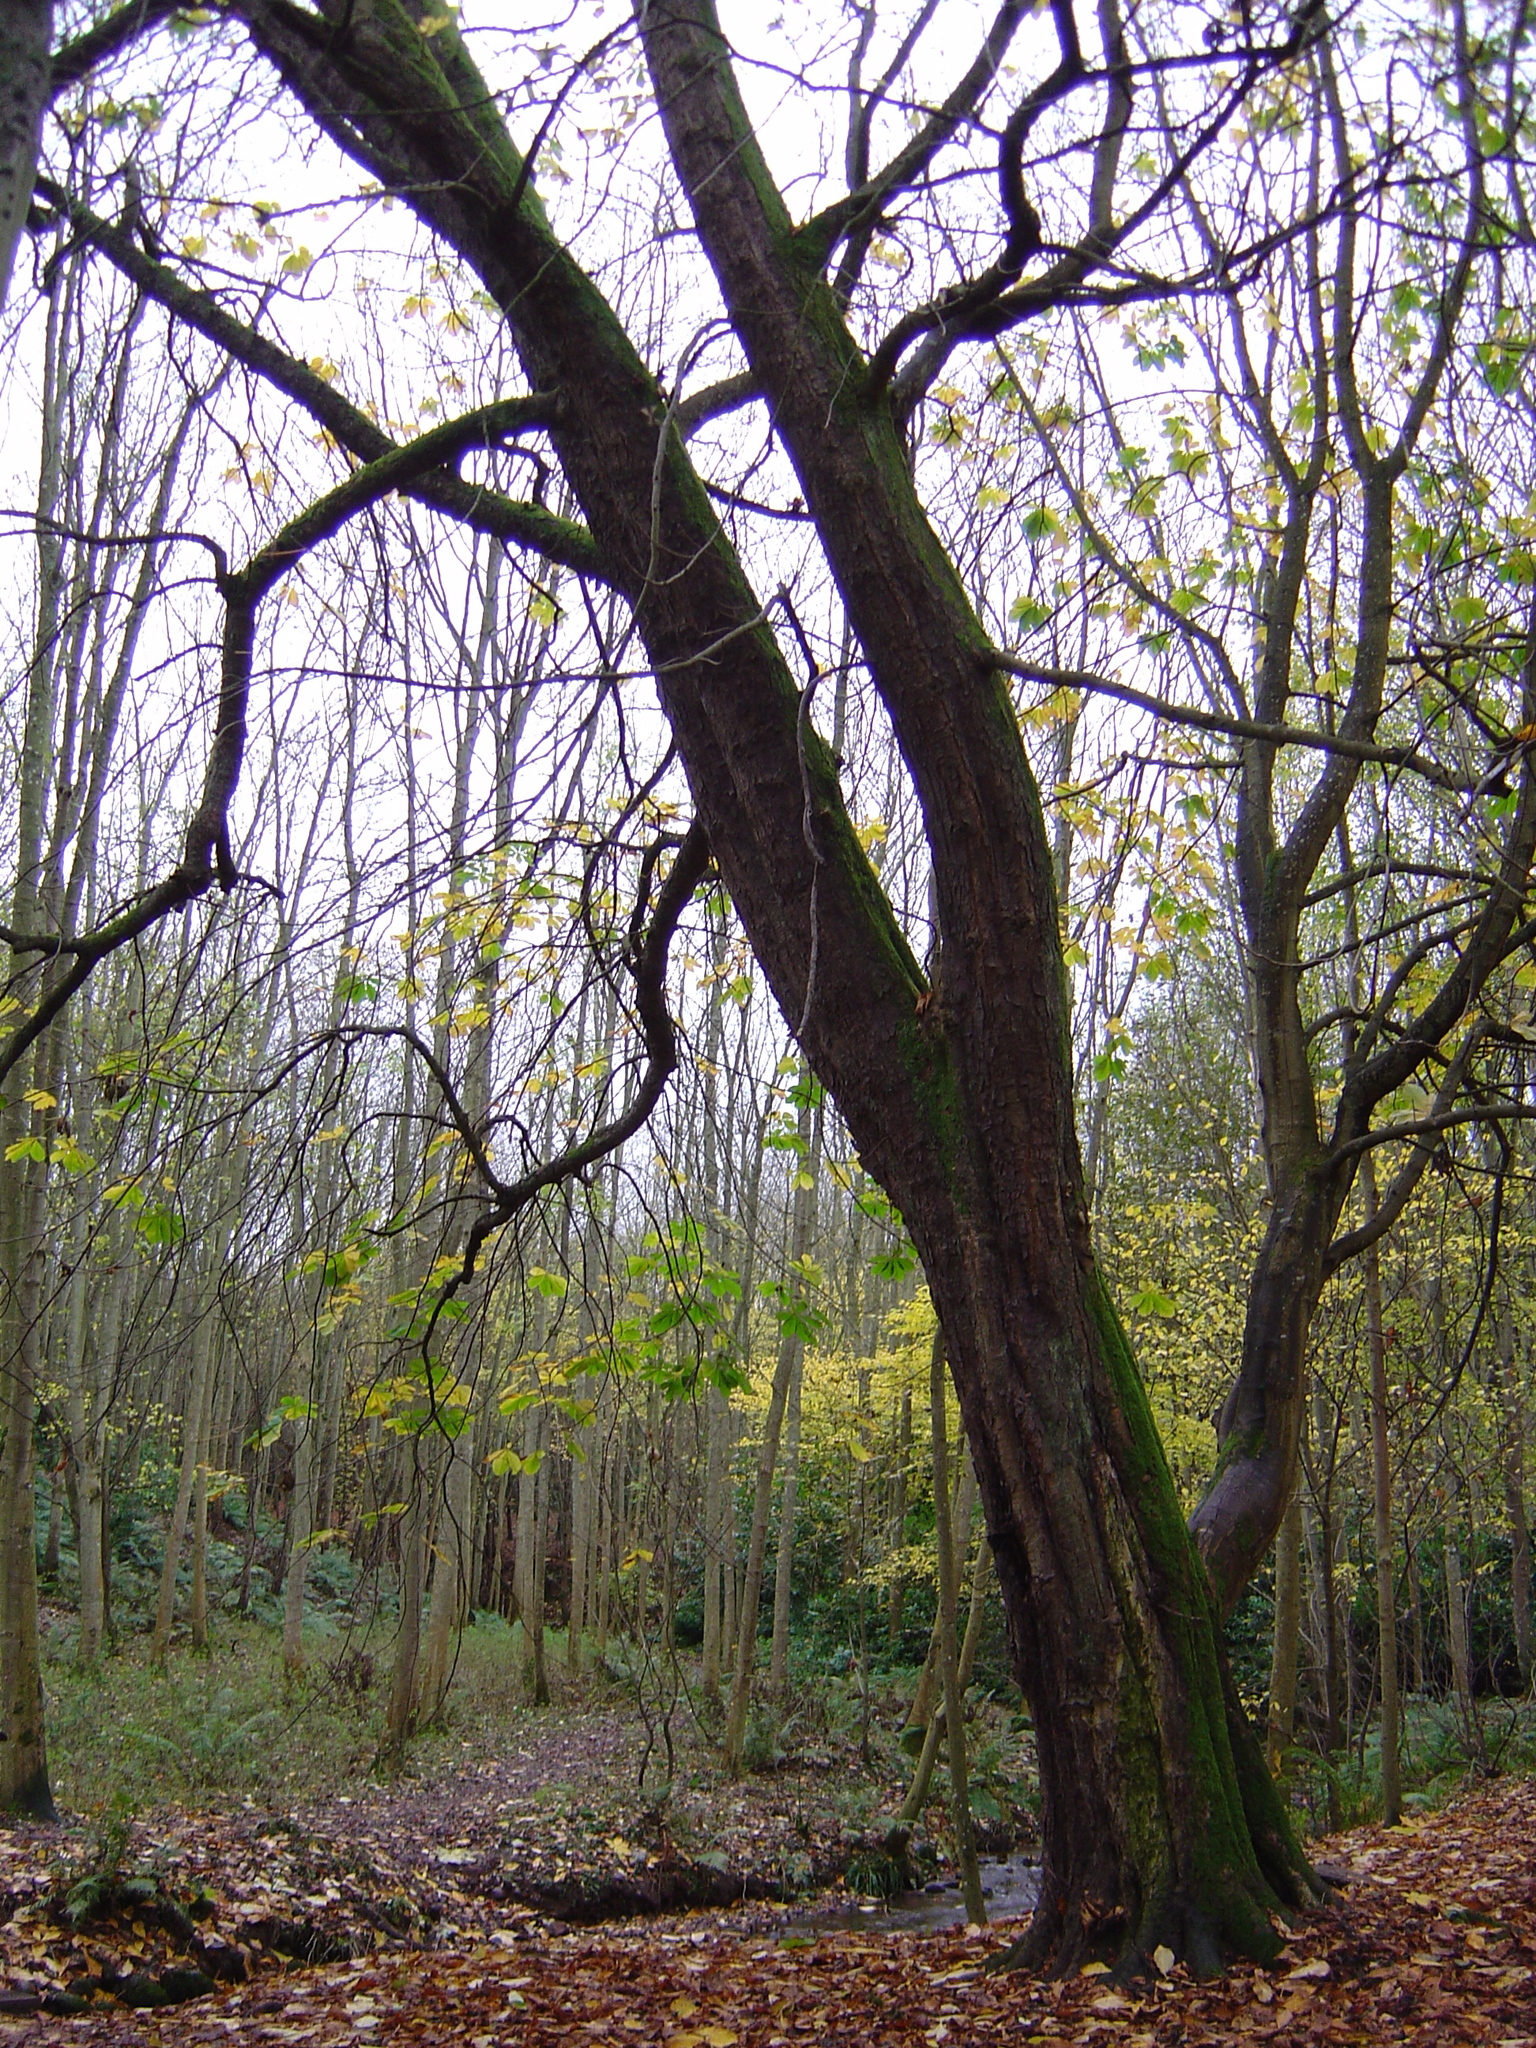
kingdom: Plantae
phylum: Tracheophyta
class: Magnoliopsida
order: Sapindales
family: Sapindaceae
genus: Aesculus
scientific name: Aesculus hippocastanum
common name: Horse-chestnut
